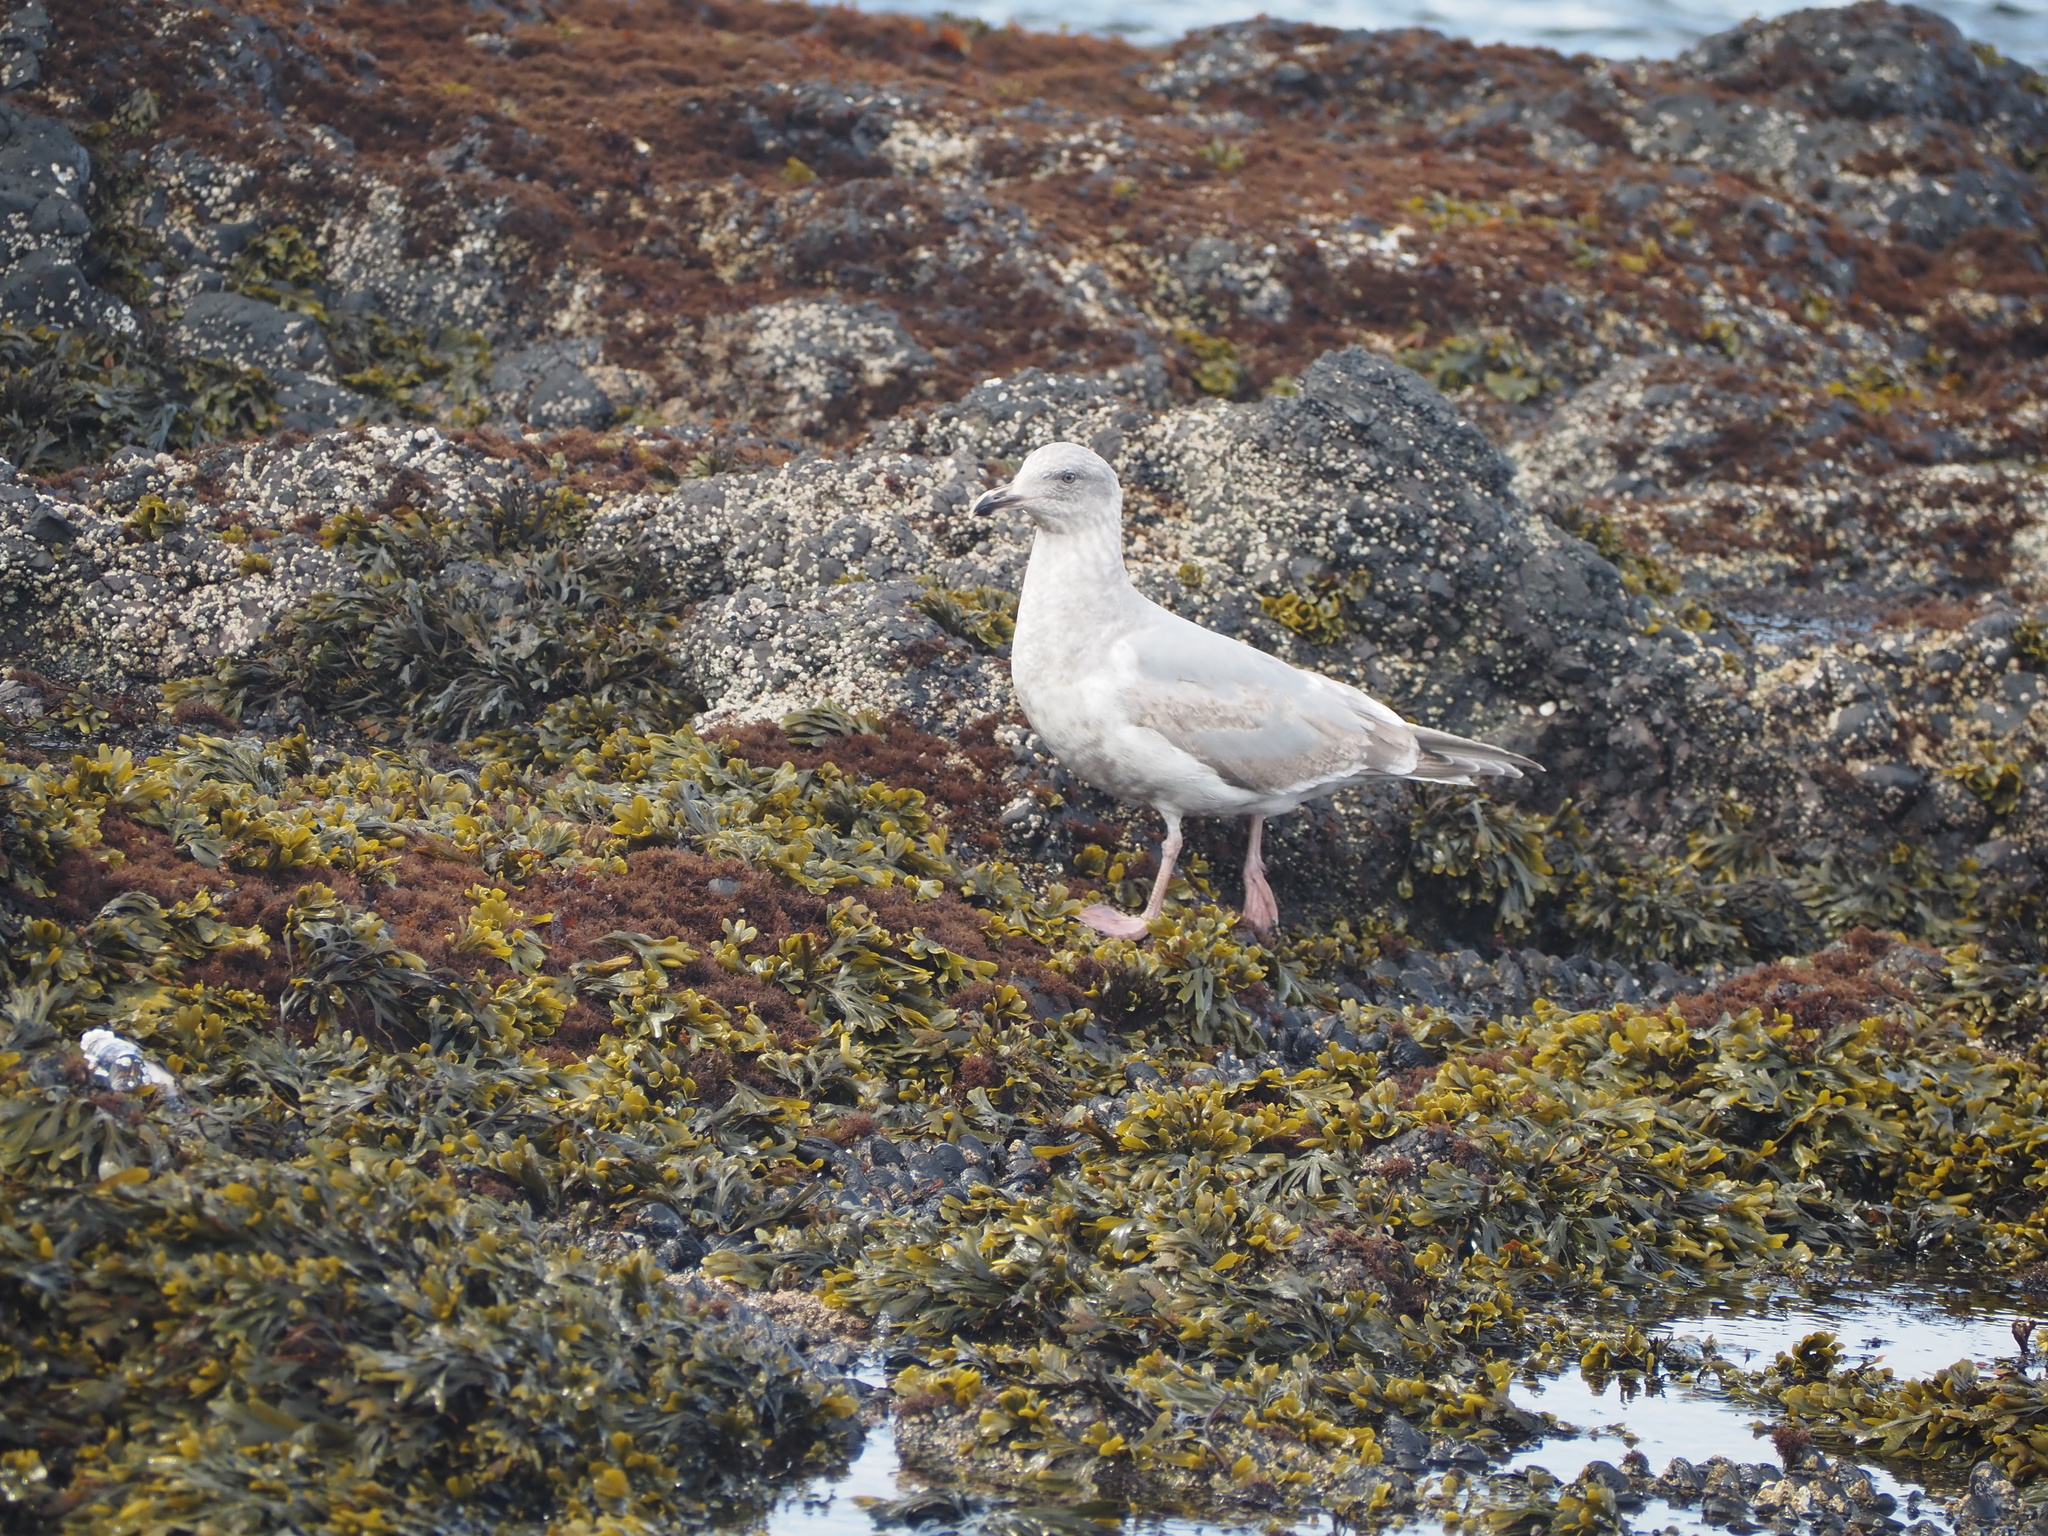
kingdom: Animalia
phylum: Chordata
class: Aves
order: Charadriiformes
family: Laridae
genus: Larus
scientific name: Larus
